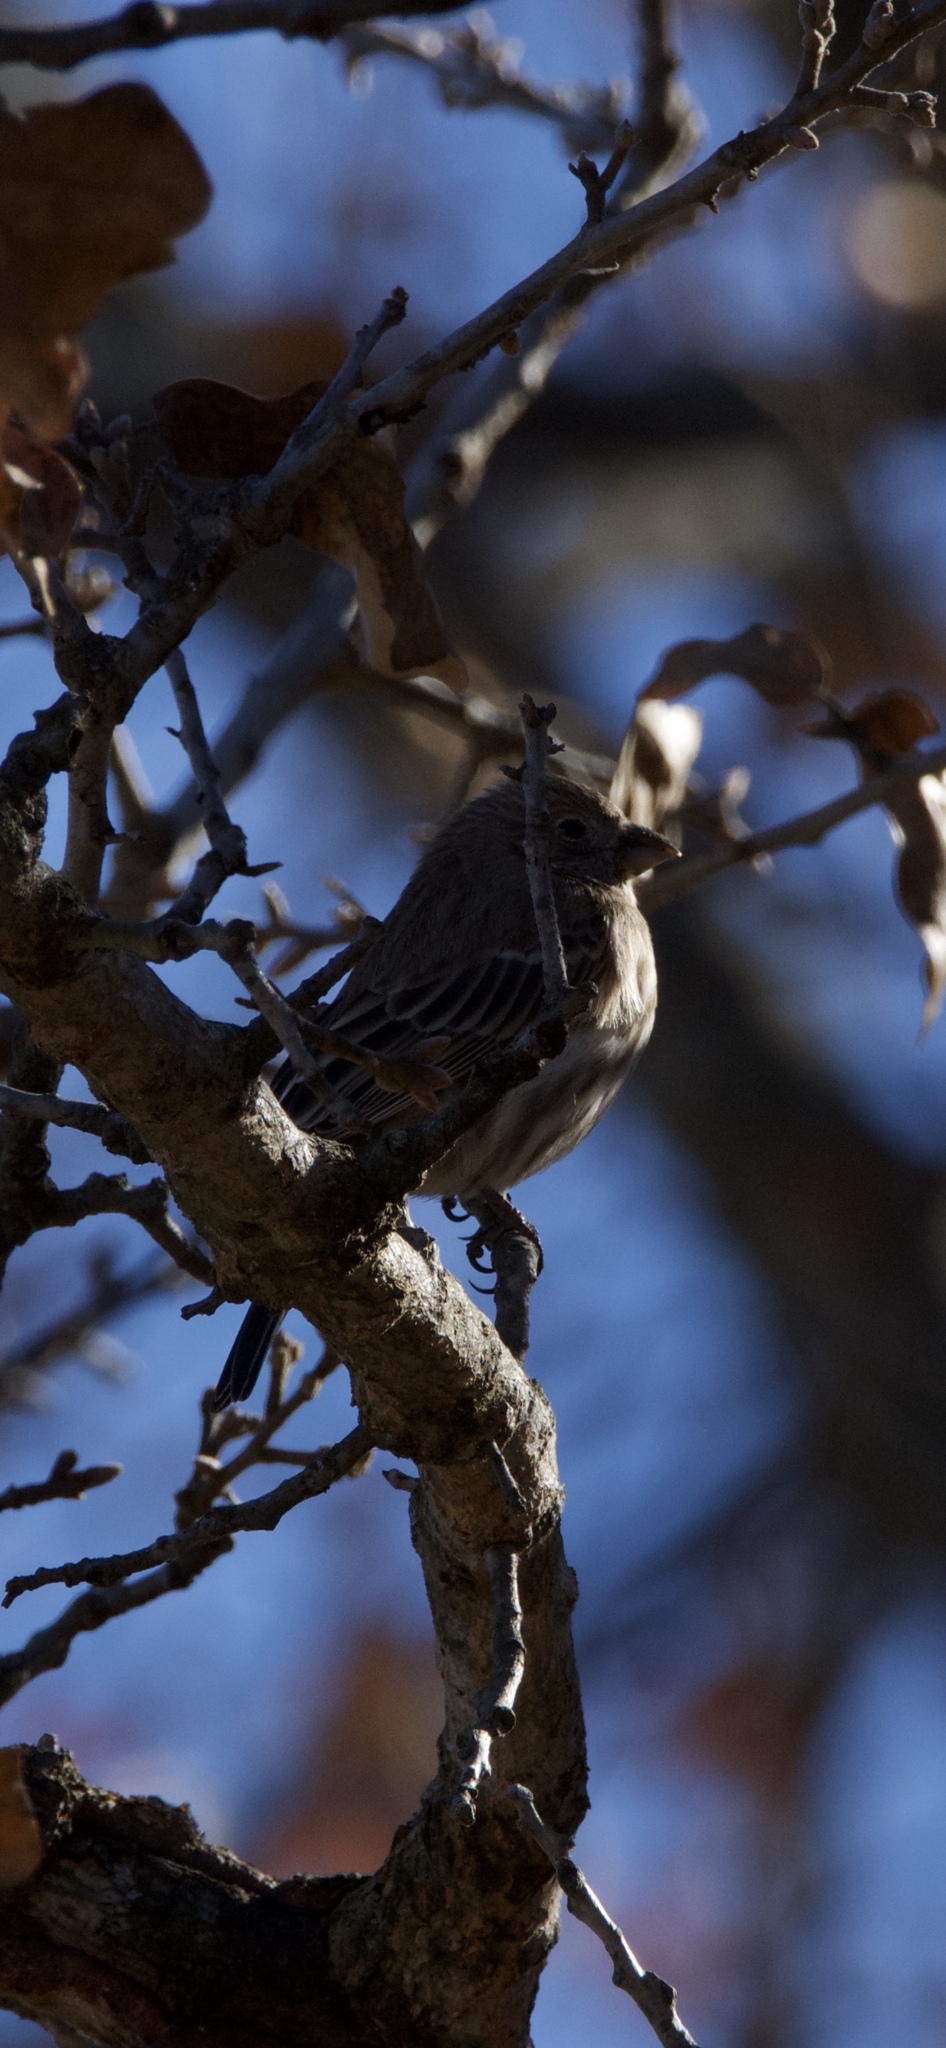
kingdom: Animalia
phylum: Chordata
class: Aves
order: Passeriformes
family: Fringillidae
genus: Haemorhous
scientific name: Haemorhous mexicanus
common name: House finch
